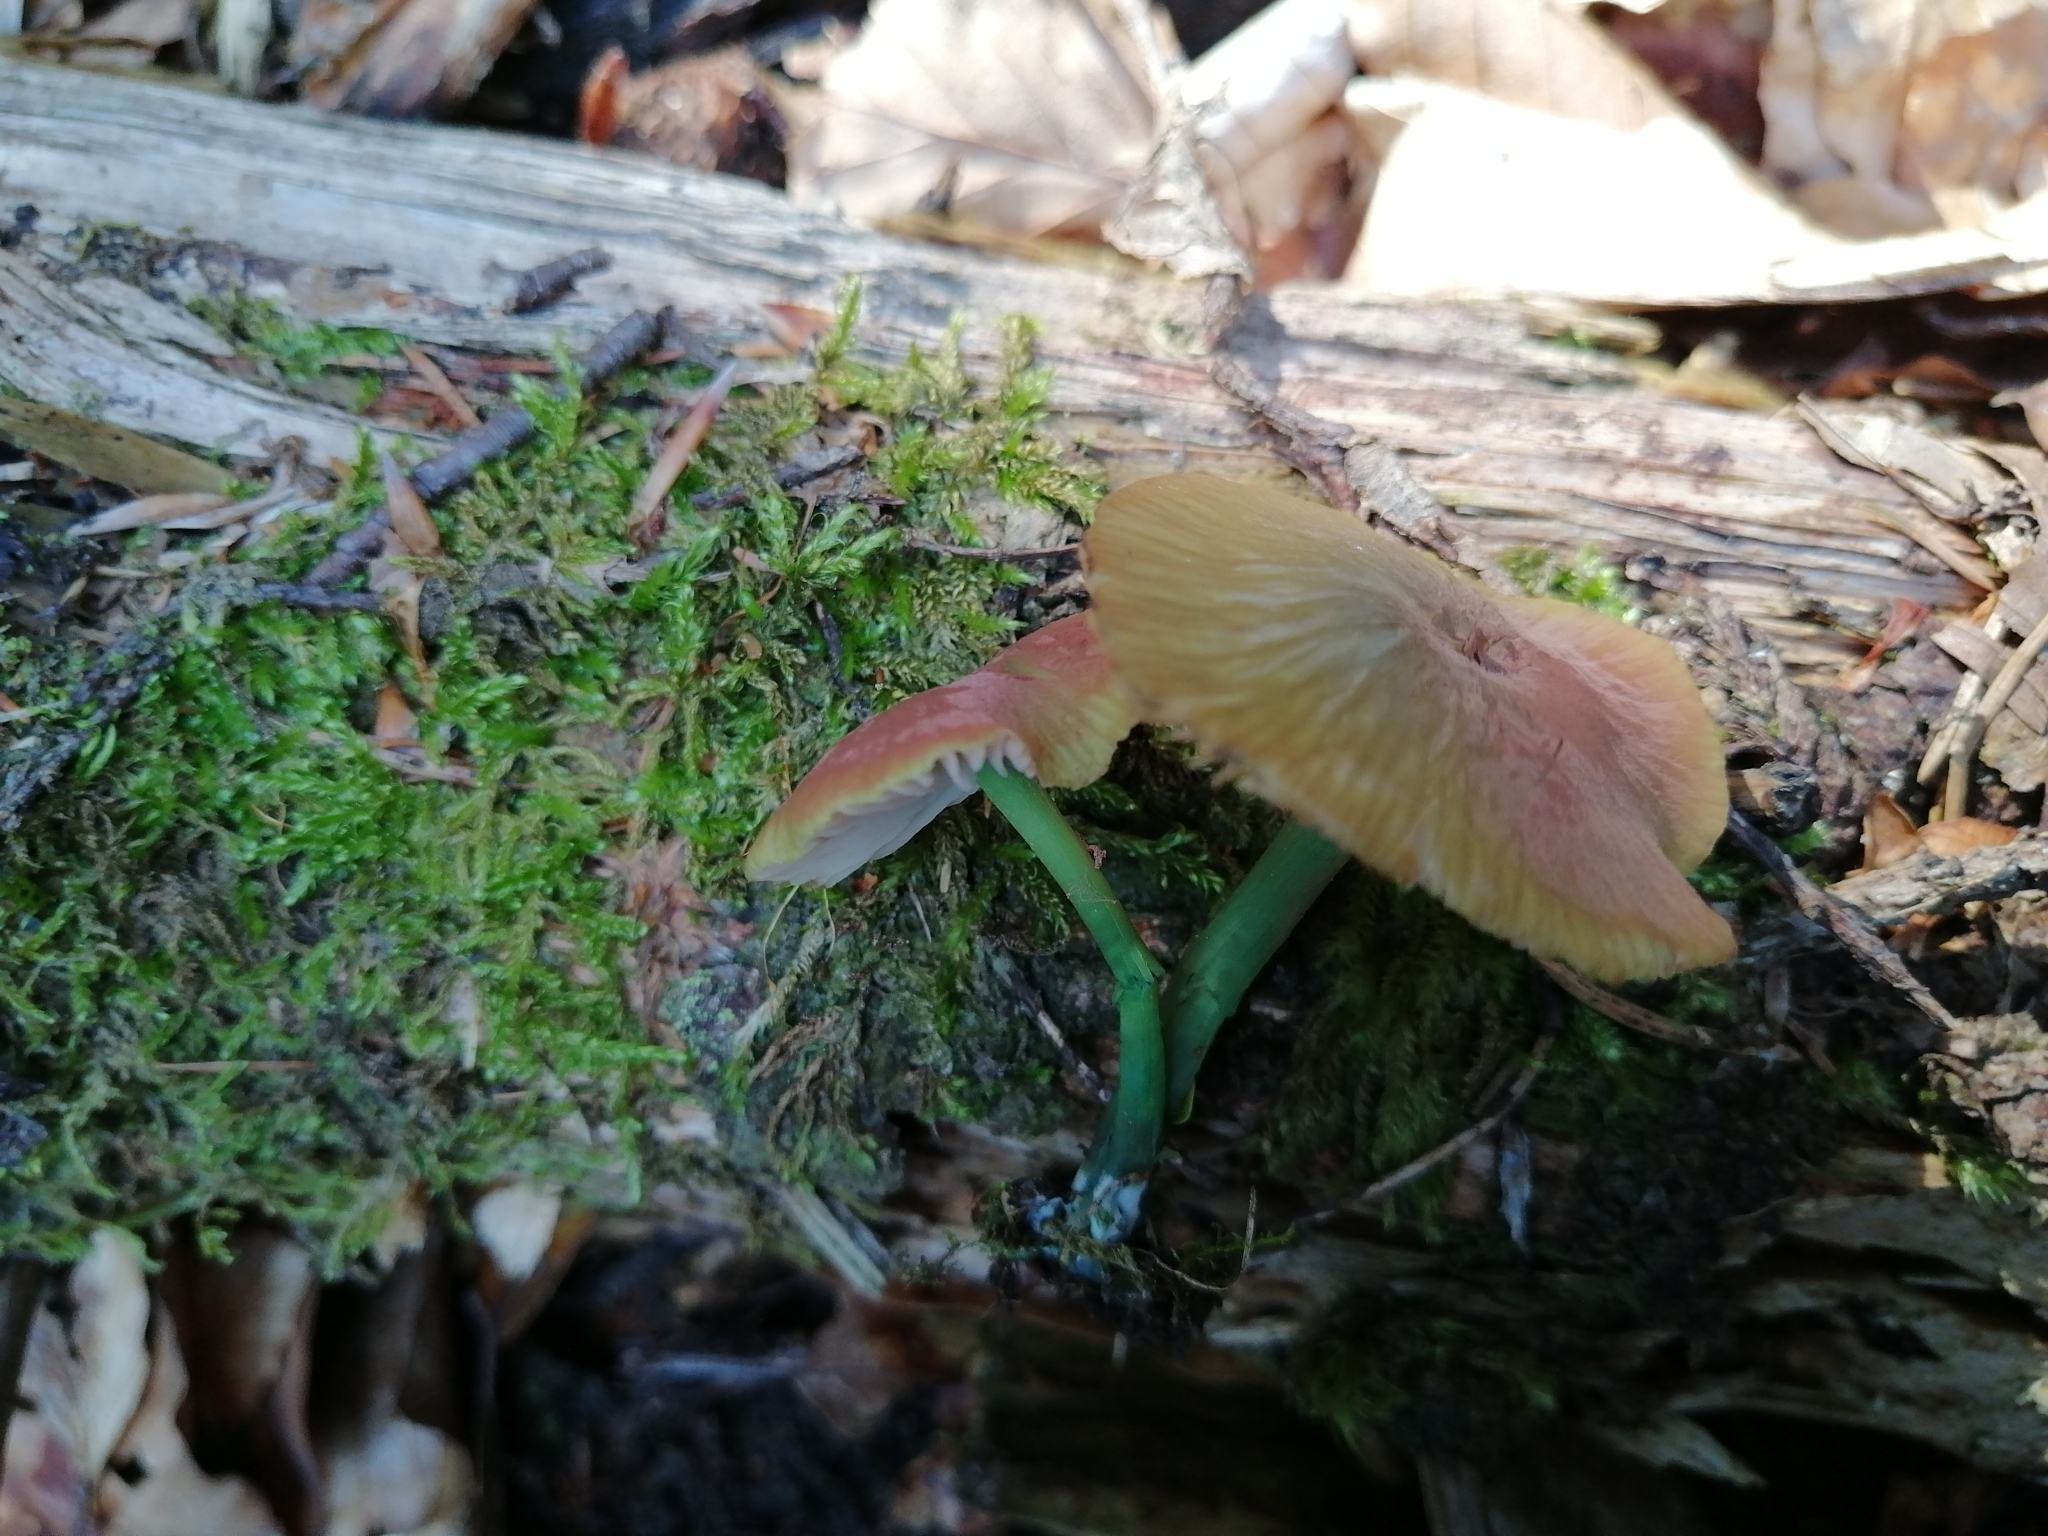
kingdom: Fungi
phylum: Basidiomycota
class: Agaricomycetes
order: Agaricales
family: Entolomataceae
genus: Entoloma
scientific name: Entoloma incanum
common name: Mousepee pinkgill
